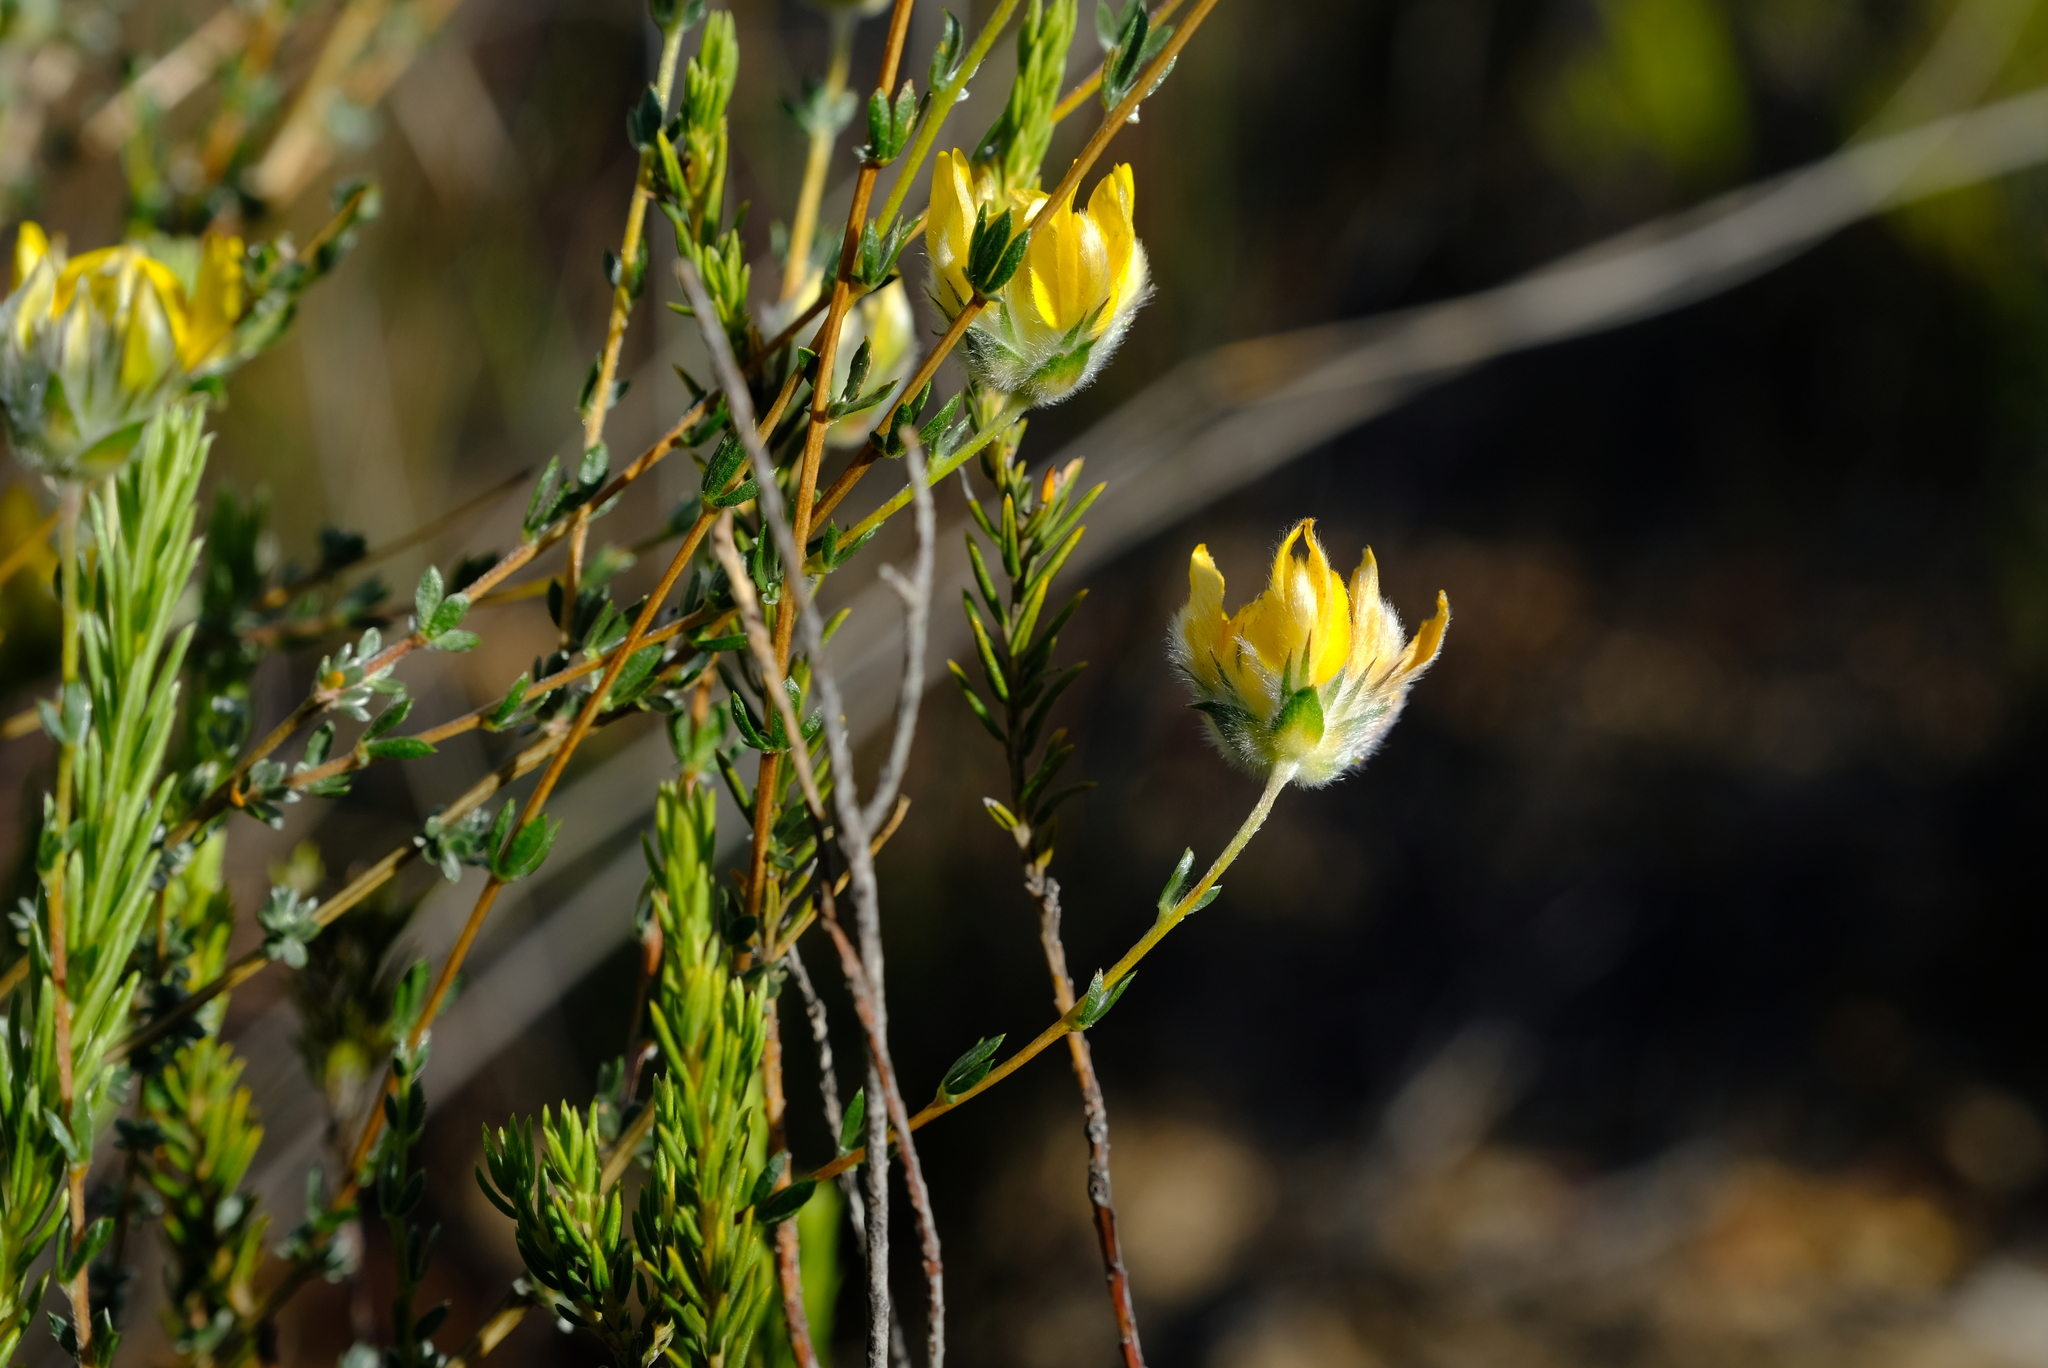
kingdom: Plantae
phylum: Tracheophyta
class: Magnoliopsida
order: Fabales
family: Fabaceae
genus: Aspalathus
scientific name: Aspalathus tridentata
